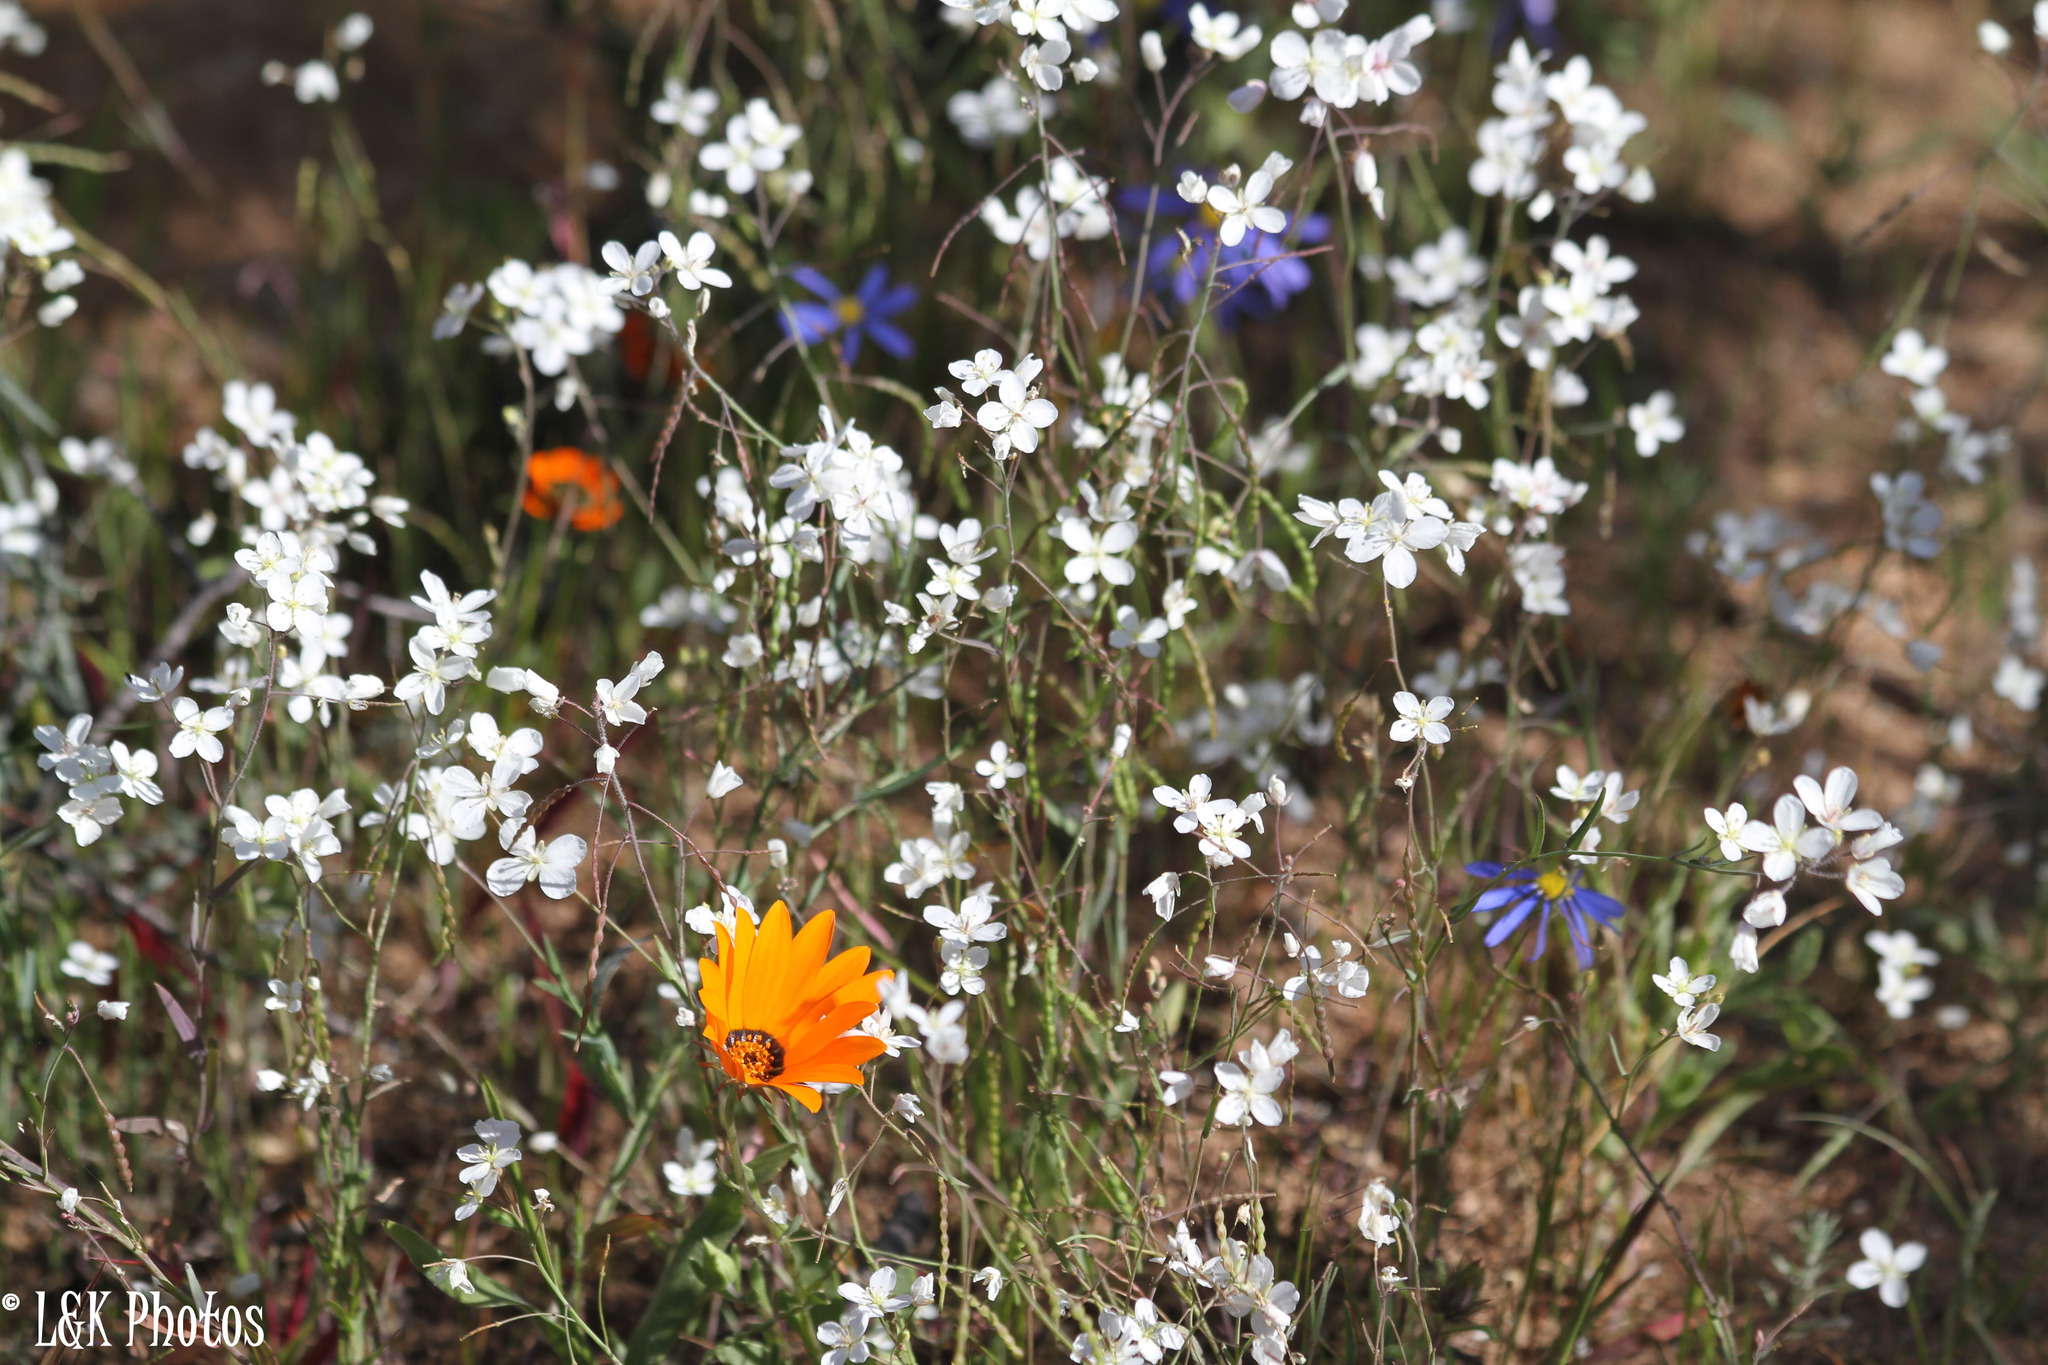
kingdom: Plantae
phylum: Tracheophyta
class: Magnoliopsida
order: Brassicales
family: Brassicaceae
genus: Heliophila
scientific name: Heliophila amplexicaulis
